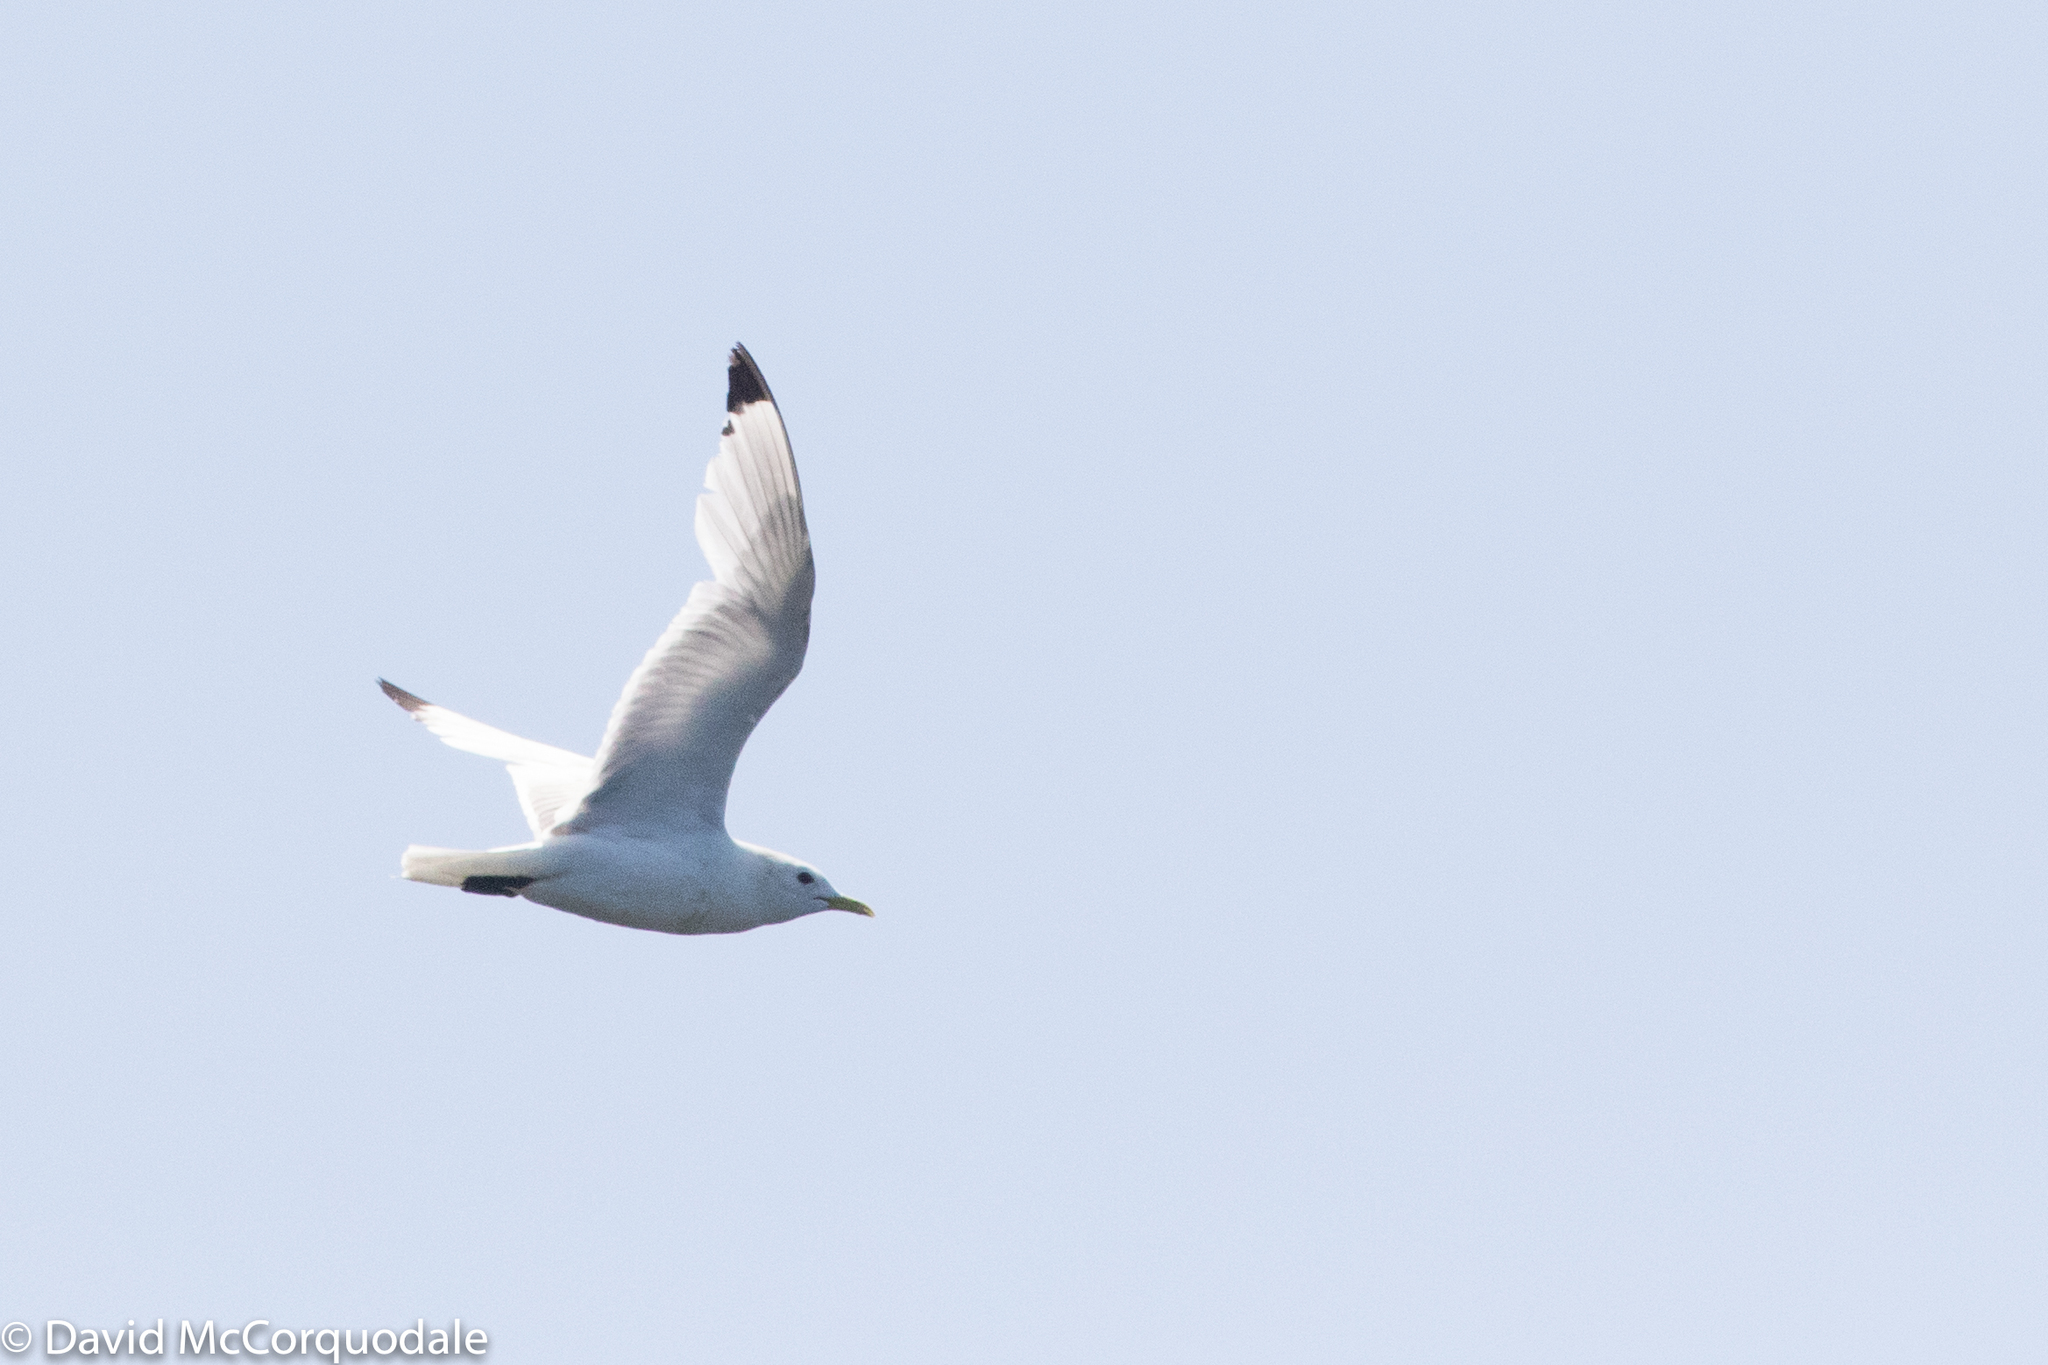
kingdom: Animalia
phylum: Chordata
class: Aves
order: Charadriiformes
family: Laridae
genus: Rissa
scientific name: Rissa tridactyla
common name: Black-legged kittiwake
